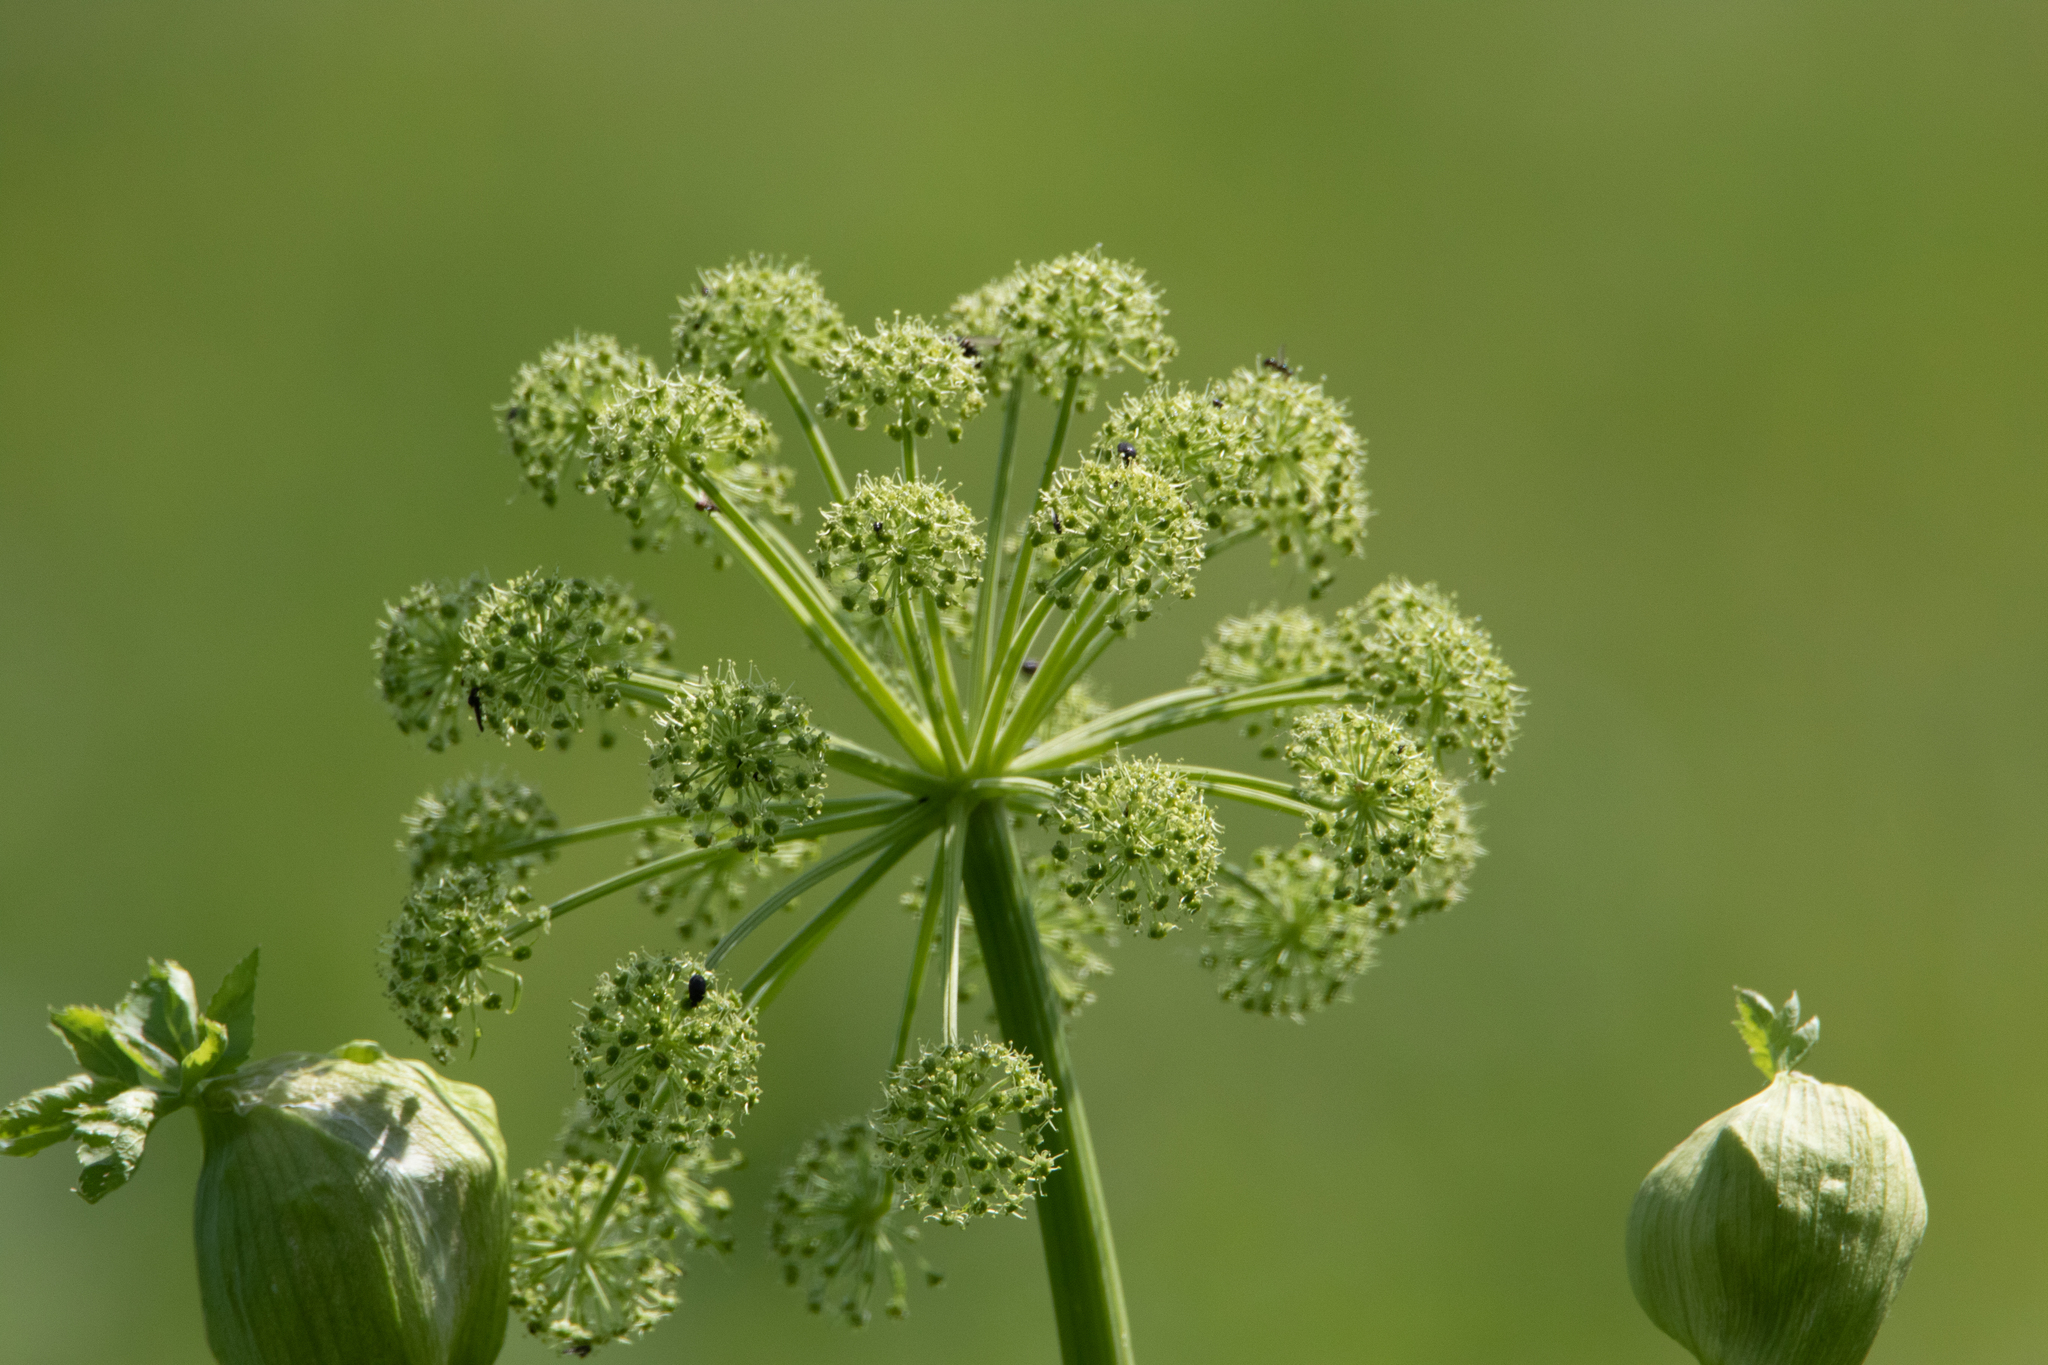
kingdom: Plantae
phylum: Tracheophyta
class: Magnoliopsida
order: Apiales
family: Apiaceae
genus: Angelica
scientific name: Angelica decurrens
